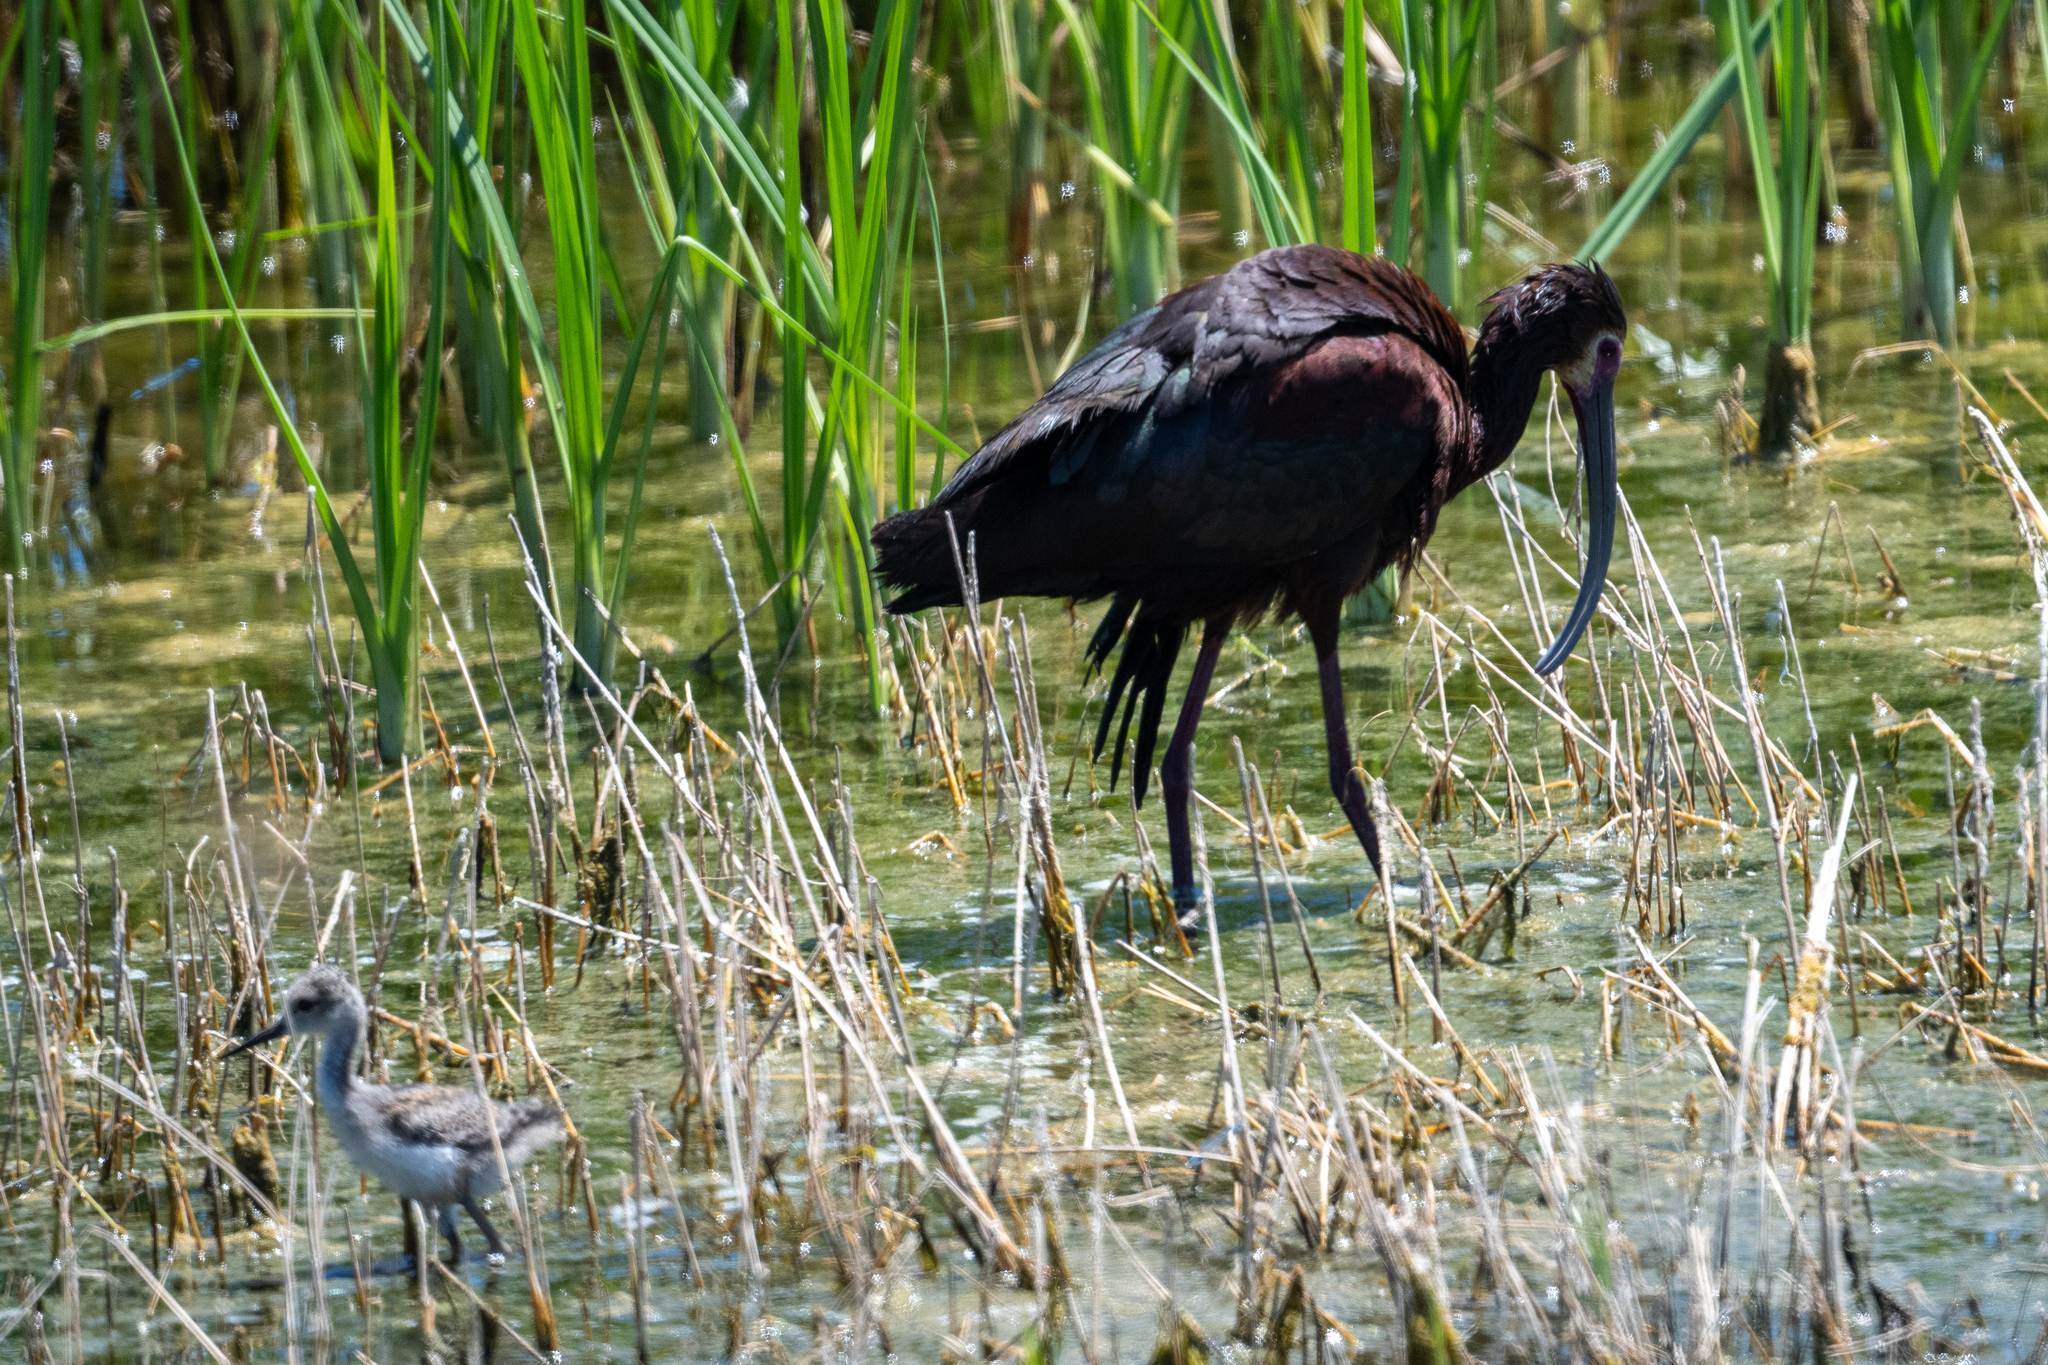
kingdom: Animalia
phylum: Chordata
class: Aves
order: Pelecaniformes
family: Threskiornithidae
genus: Plegadis
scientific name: Plegadis chihi
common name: White-faced ibis
